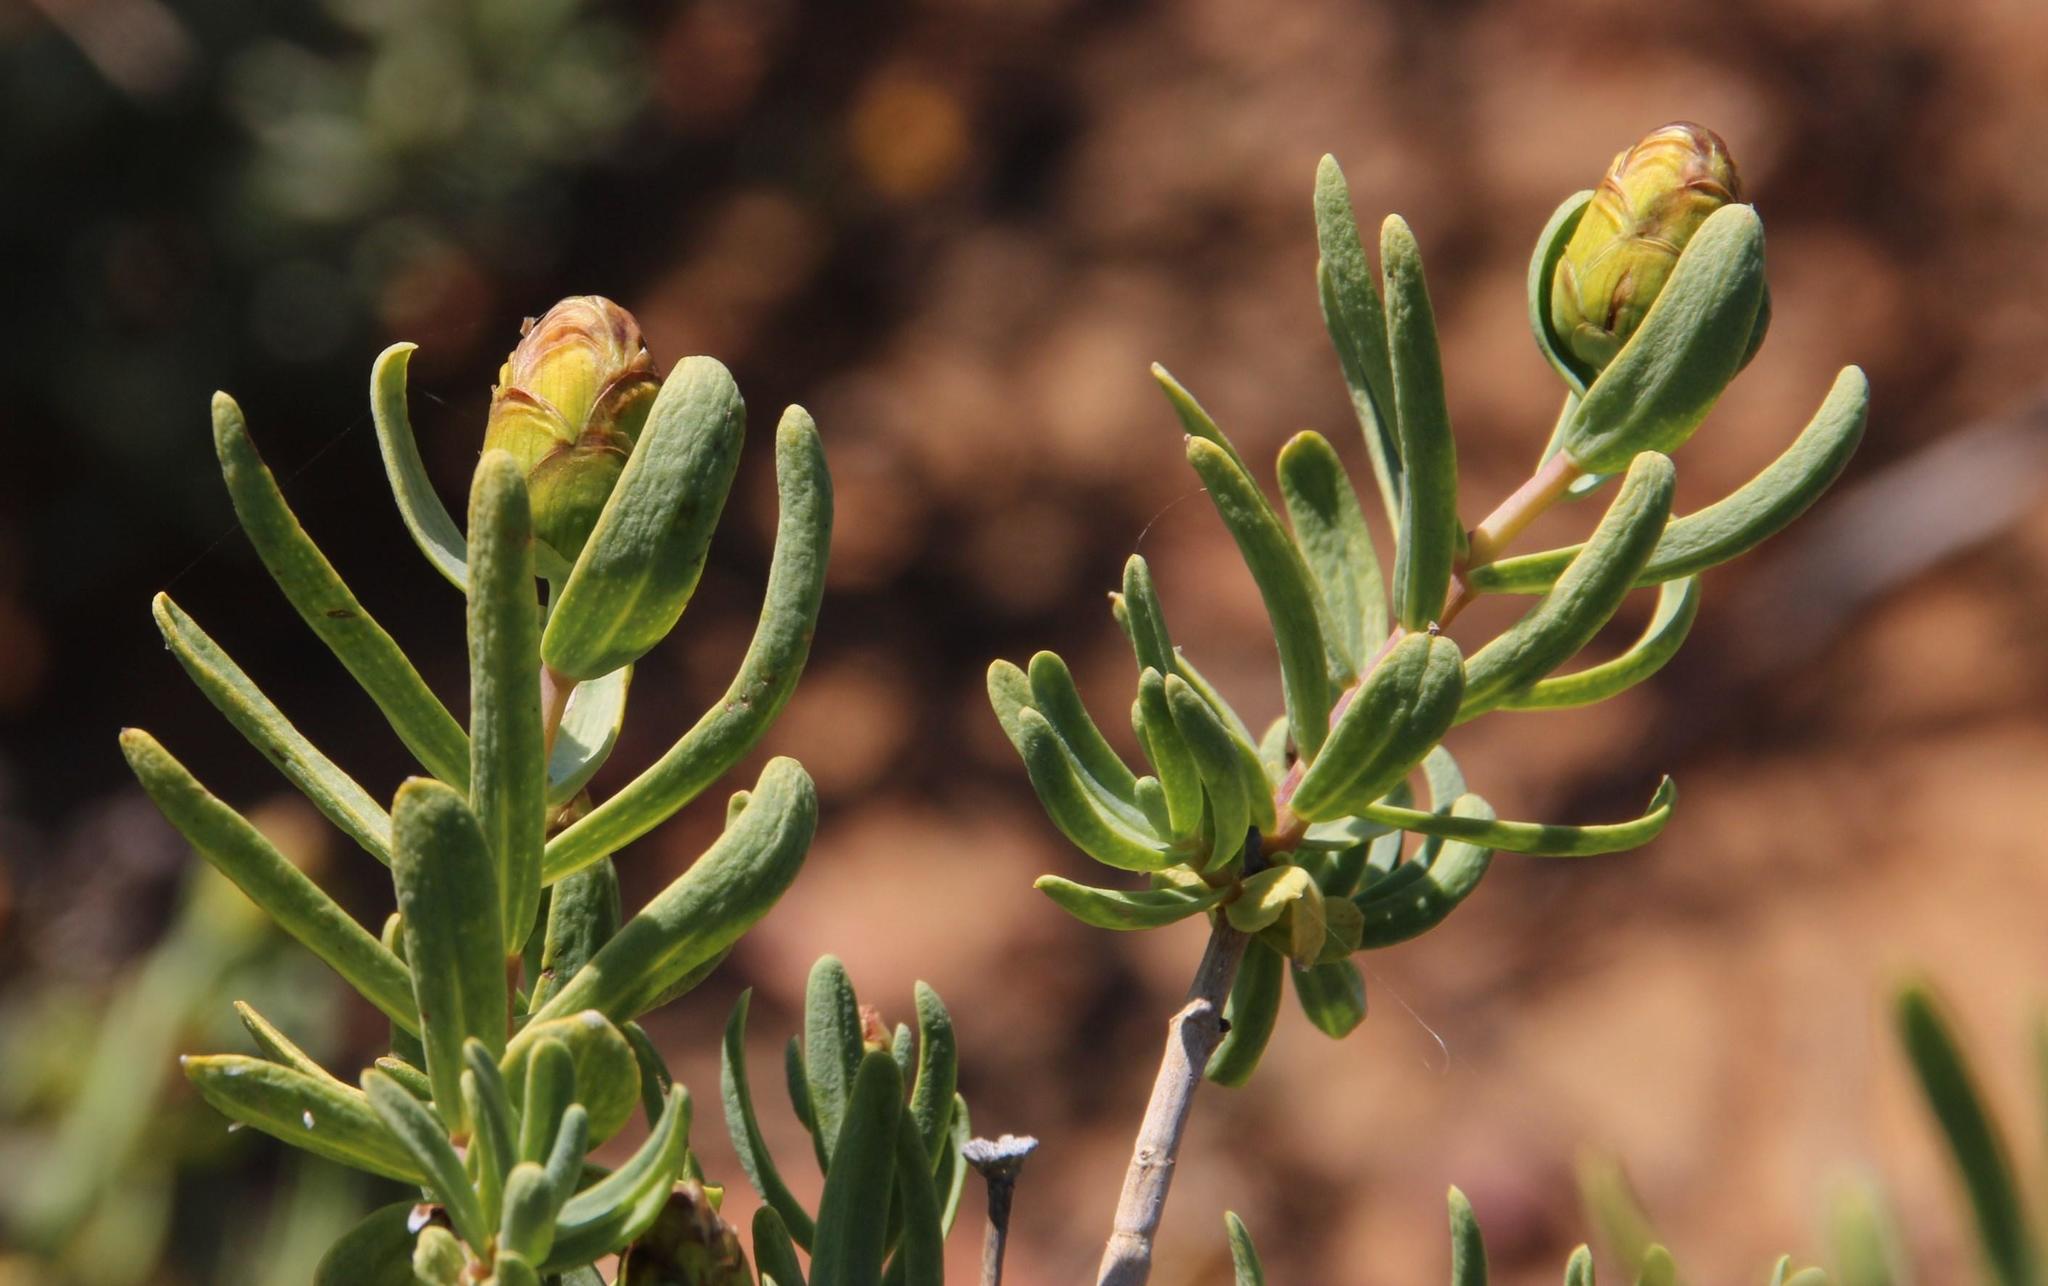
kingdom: Plantae
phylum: Tracheophyta
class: Magnoliopsida
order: Asterales
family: Asteraceae
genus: Pteronia
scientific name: Pteronia glabrata
